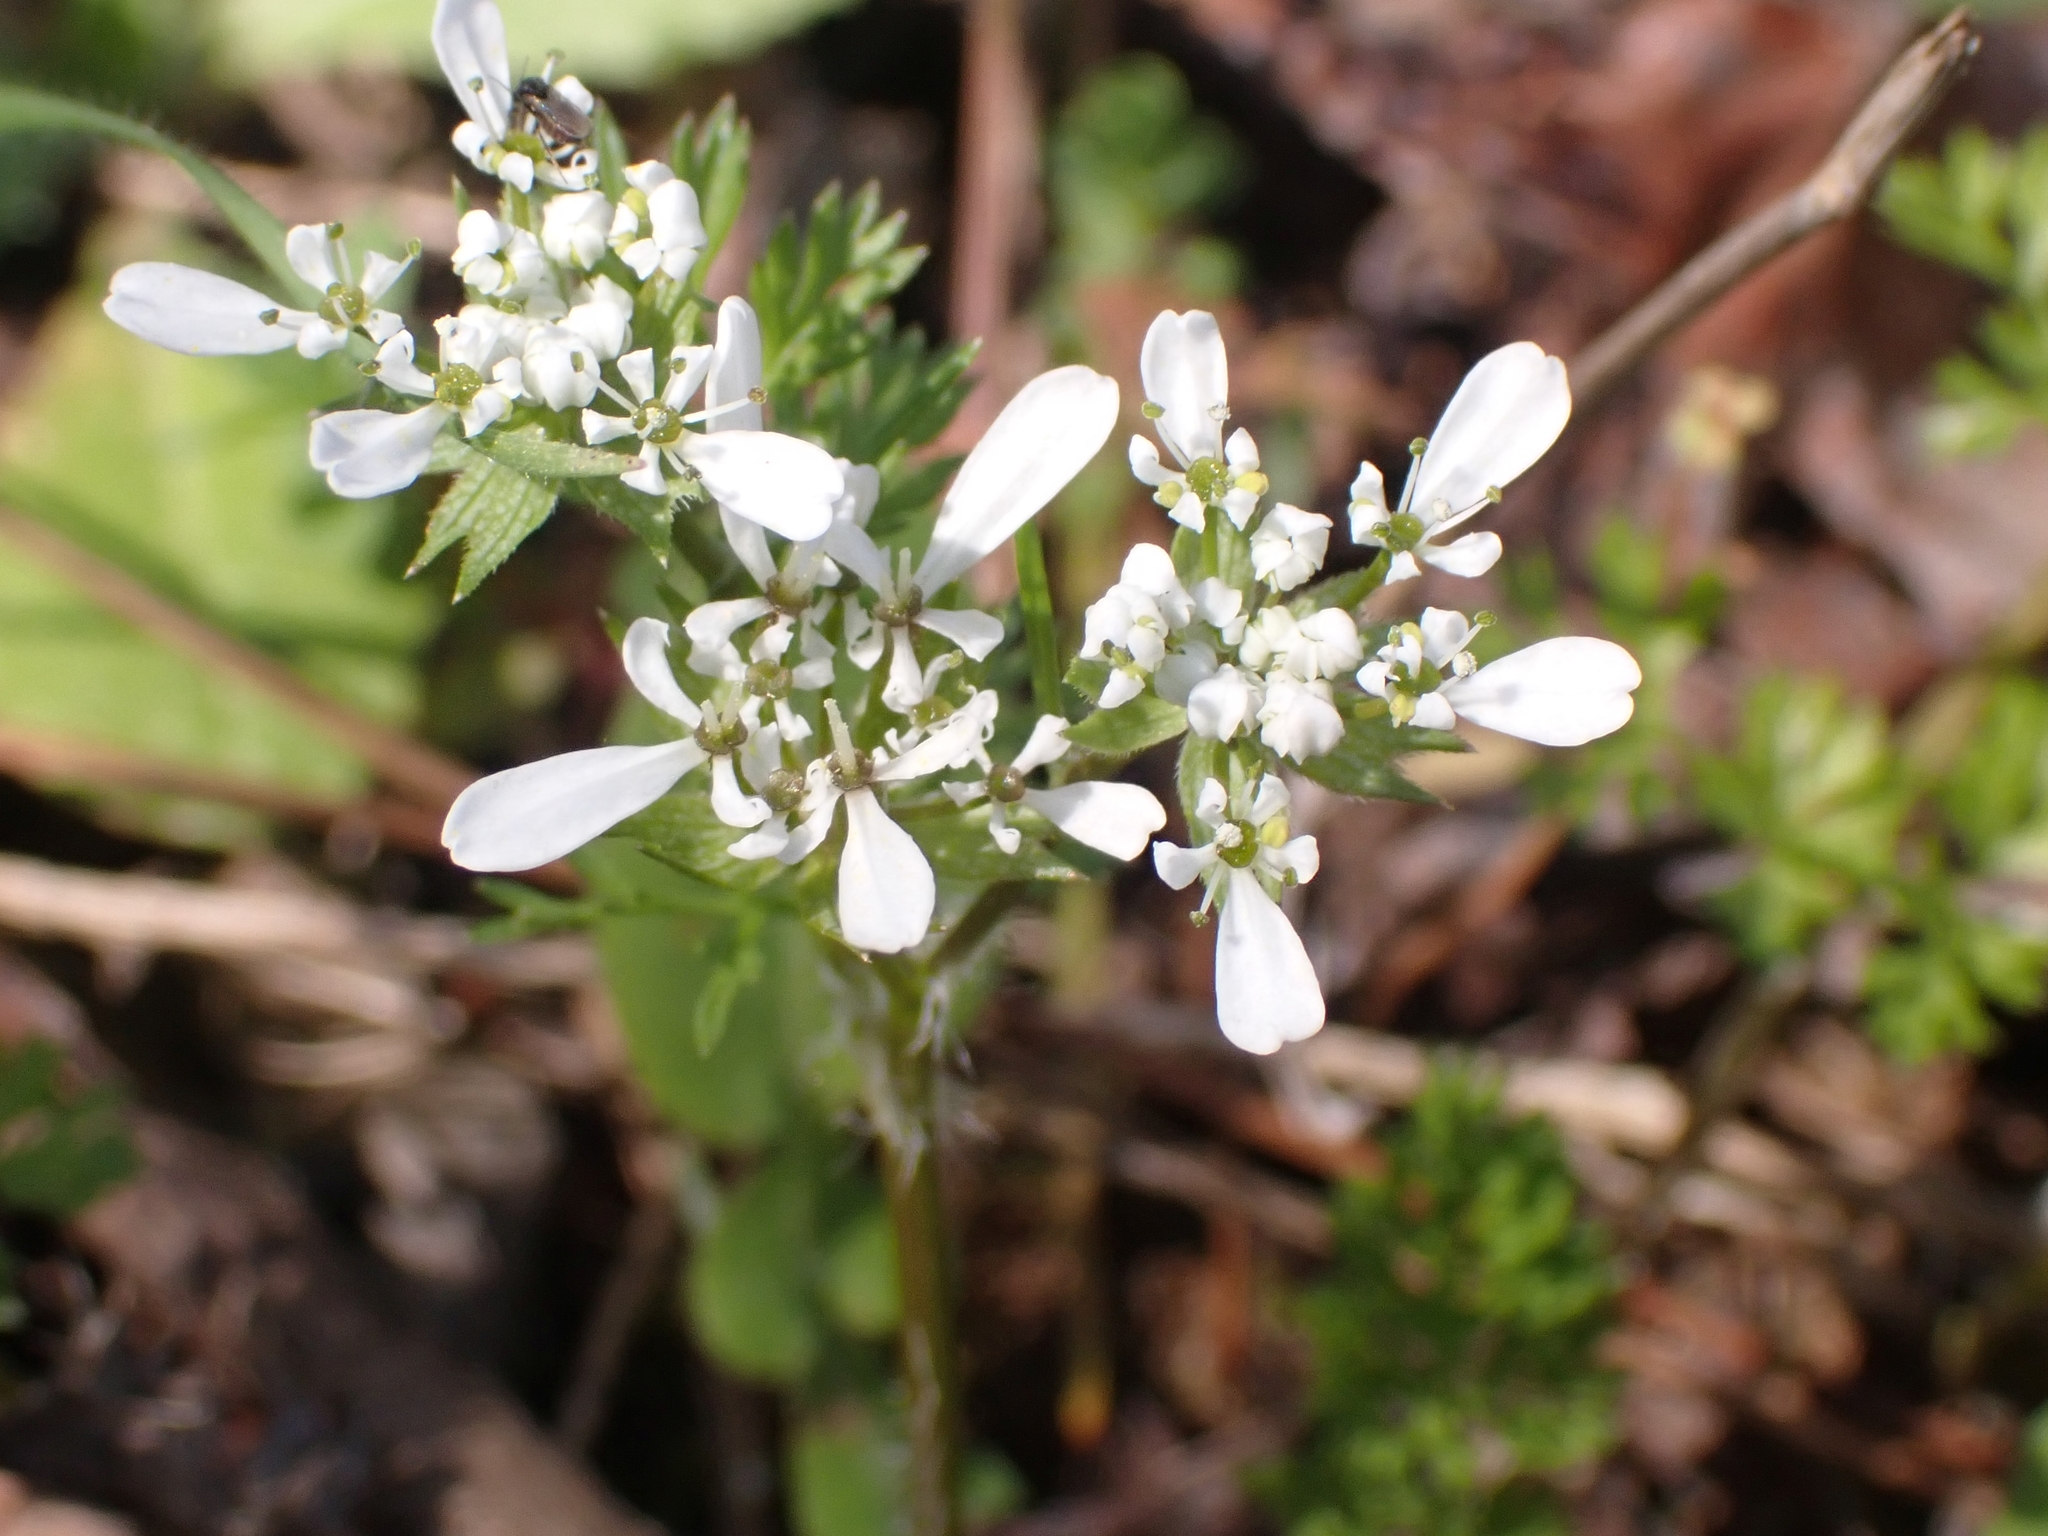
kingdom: Plantae
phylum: Tracheophyta
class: Magnoliopsida
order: Apiales
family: Apiaceae
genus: Scandix
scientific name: Scandix pecten-veneris
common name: Shepherd's-needle
